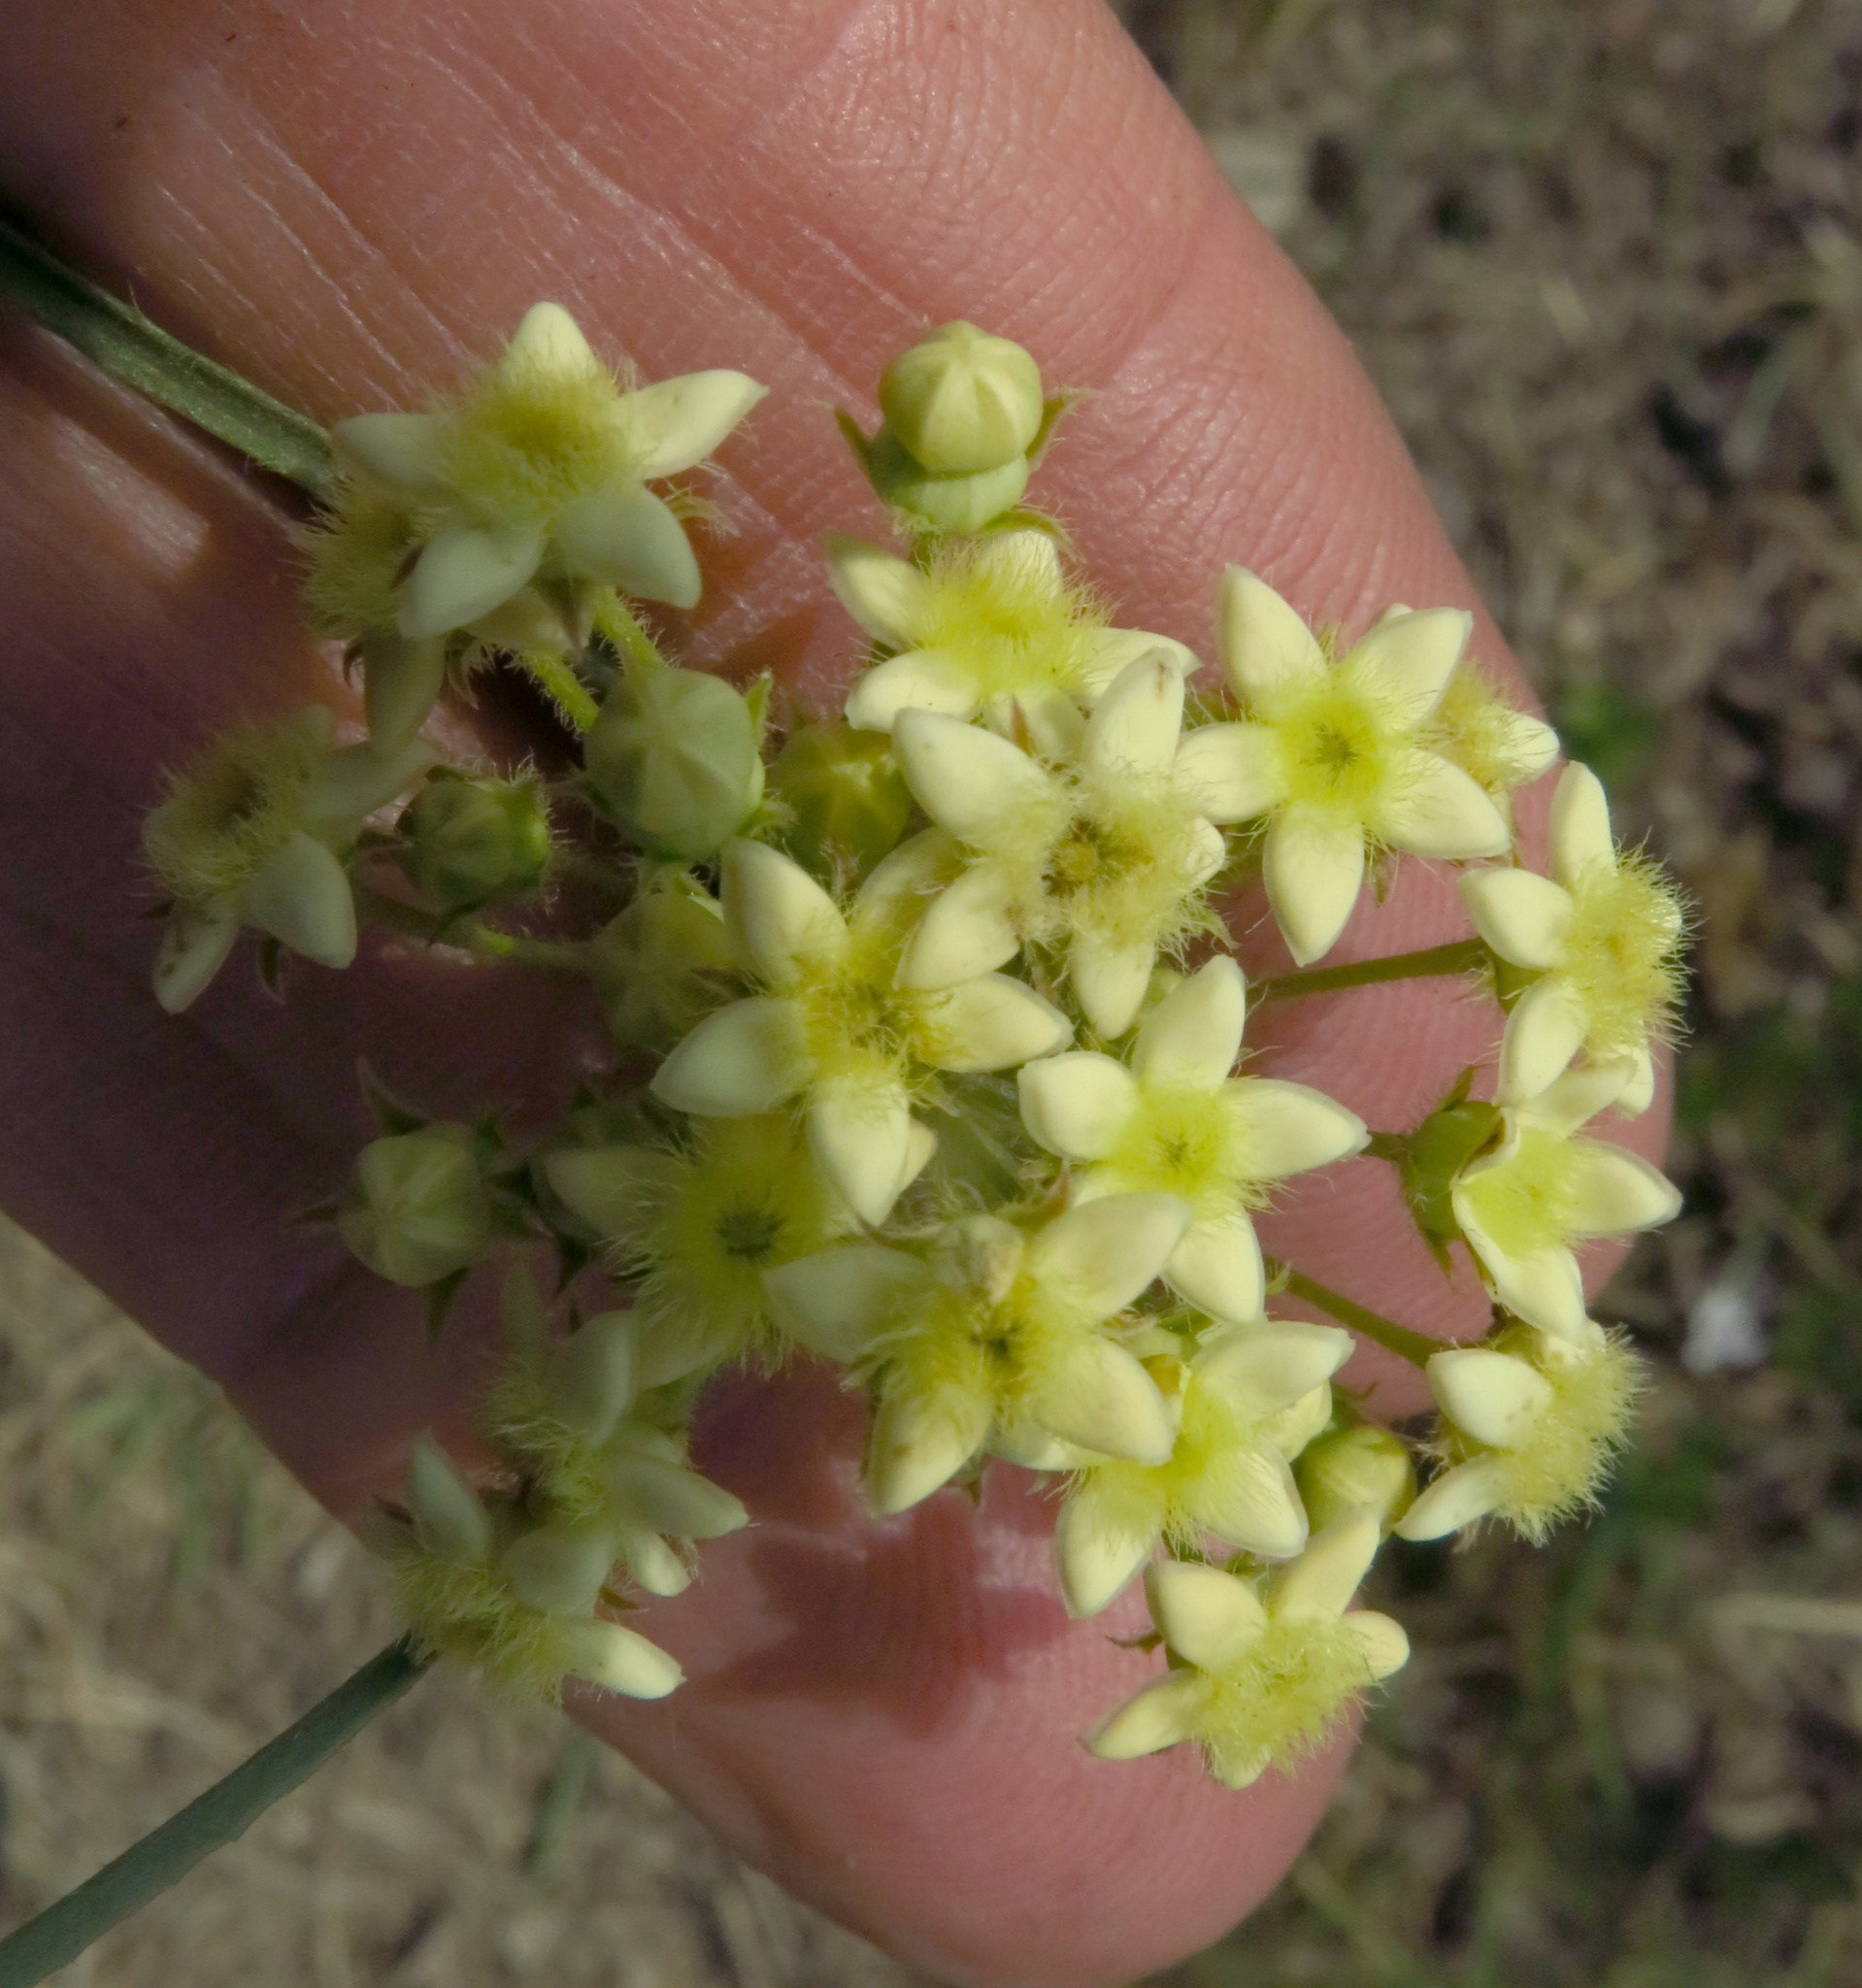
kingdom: Plantae
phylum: Tracheophyta
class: Magnoliopsida
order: Gentianales
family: Apocynaceae
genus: Sisyranthus
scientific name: Sisyranthus trichostomus
